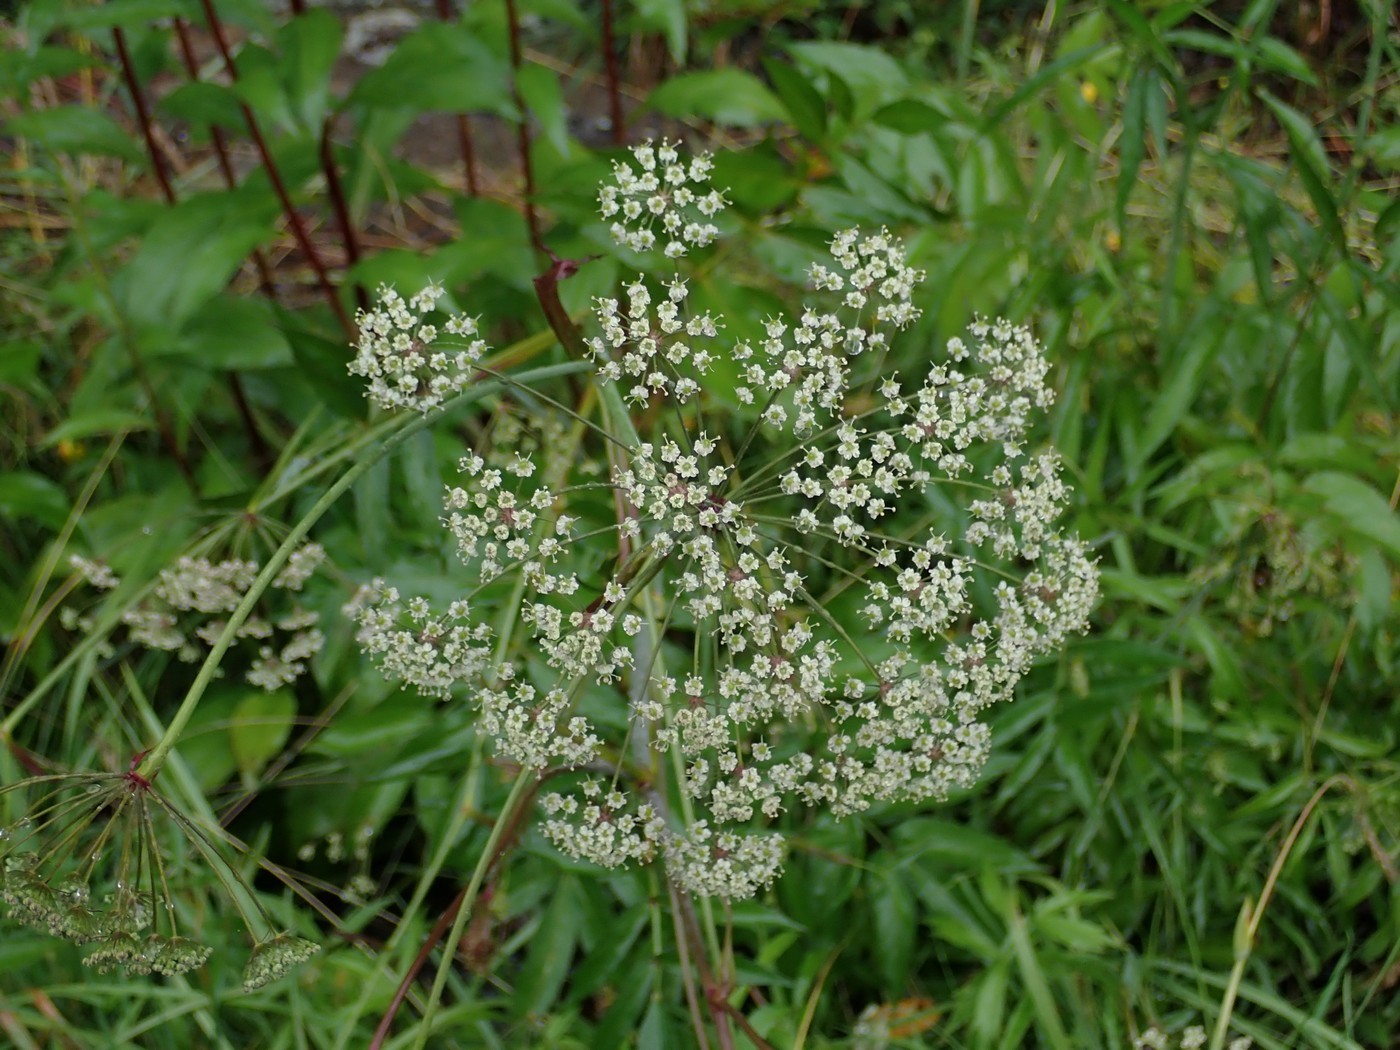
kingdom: Plantae
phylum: Tracheophyta
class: Magnoliopsida
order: Apiales
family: Apiaceae
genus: Oxypolis
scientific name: Oxypolis rigidior
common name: Cowbane
